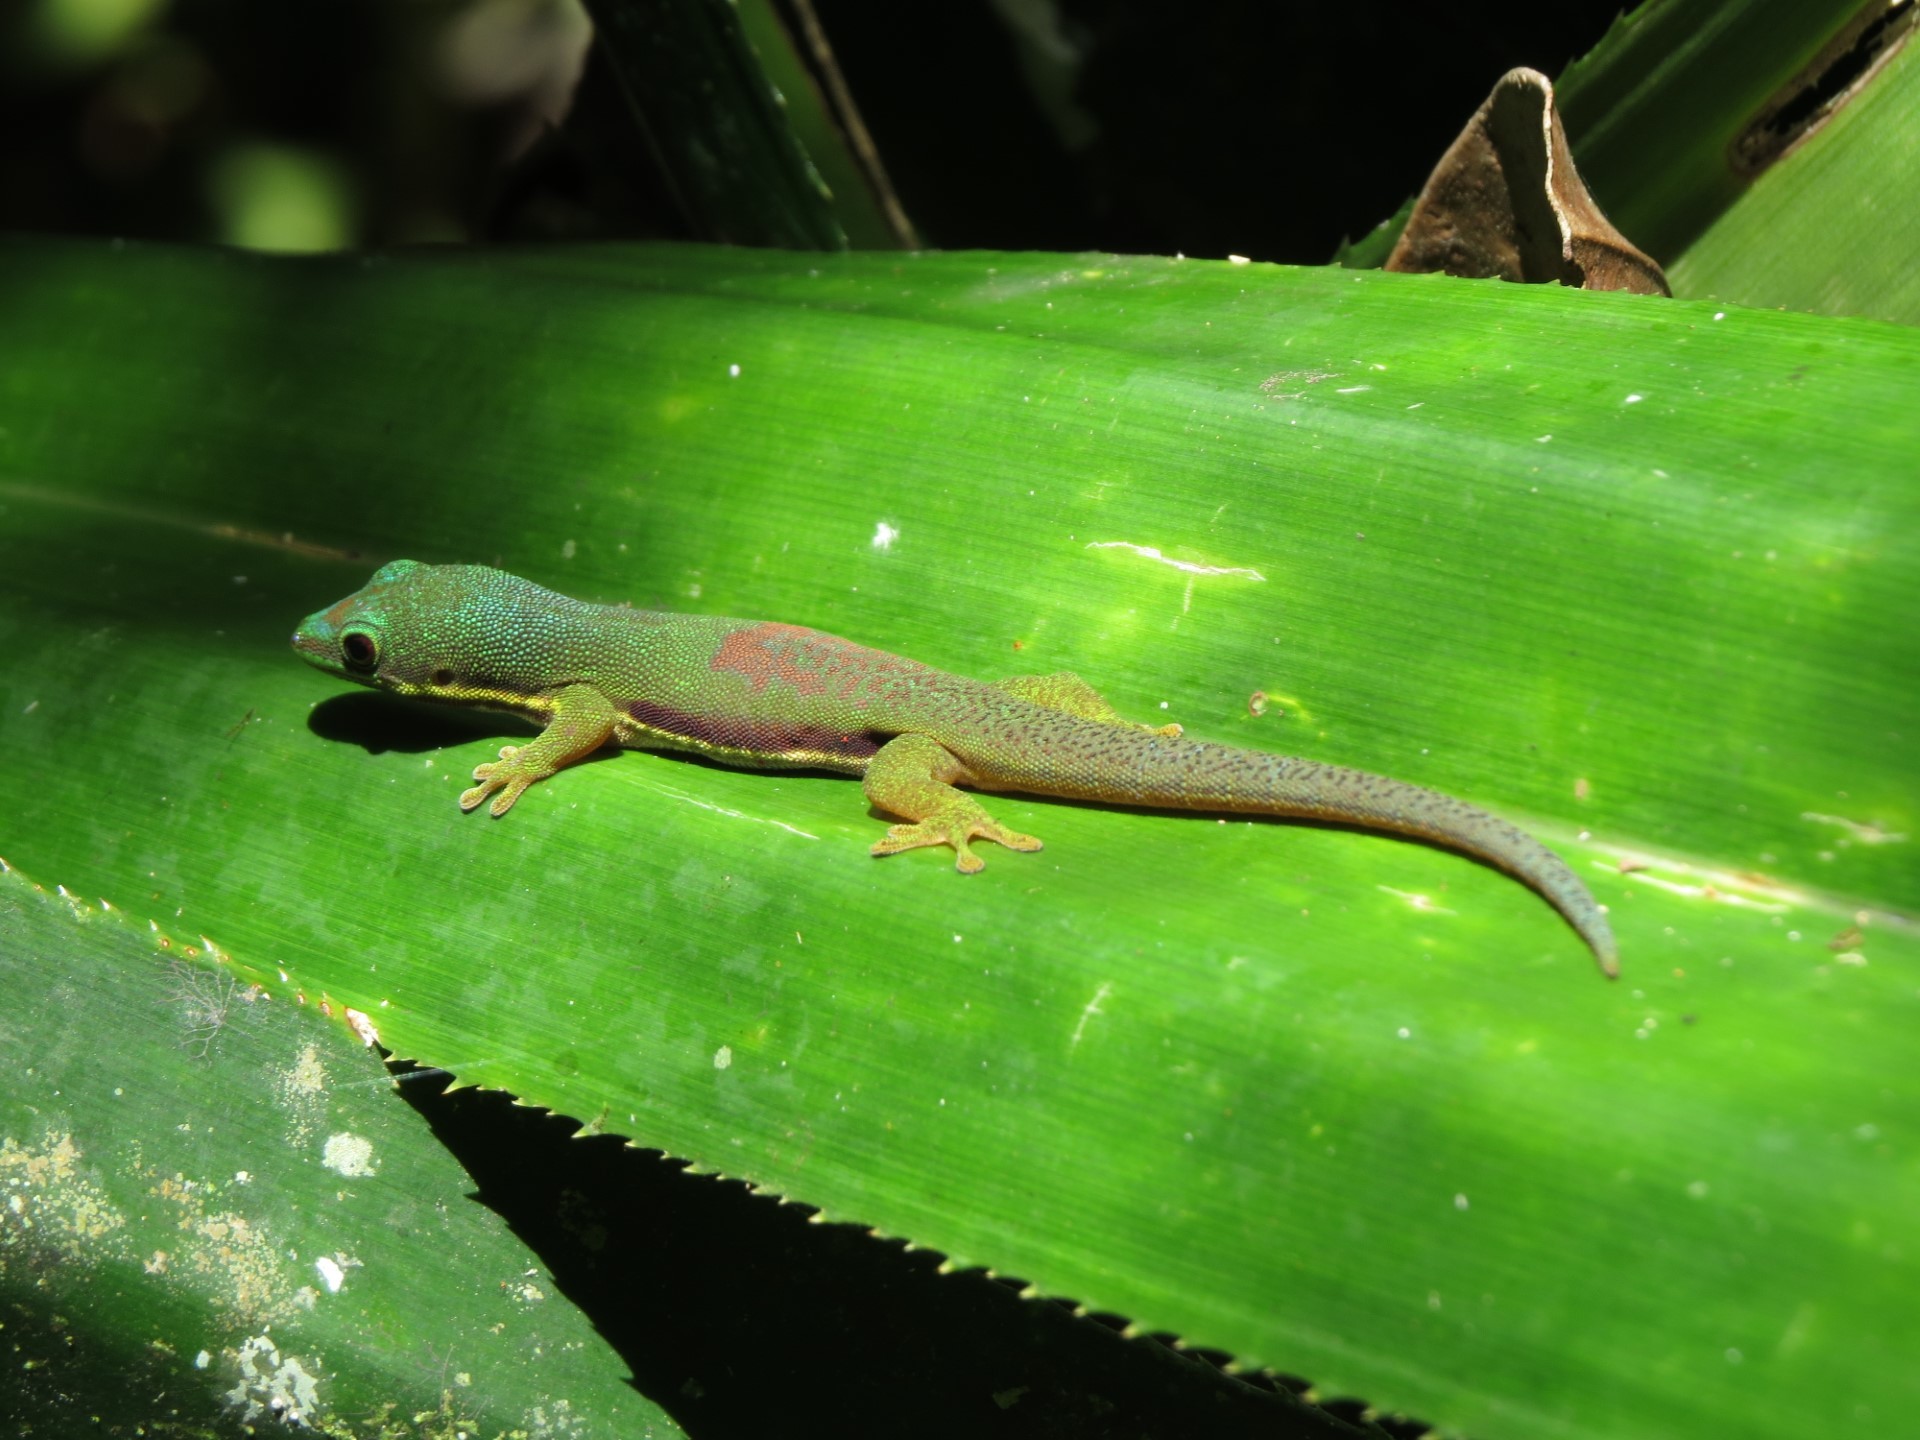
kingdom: Animalia
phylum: Chordata
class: Squamata
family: Gekkonidae
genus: Phelsuma
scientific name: Phelsuma lineata
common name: Lined day gecko
